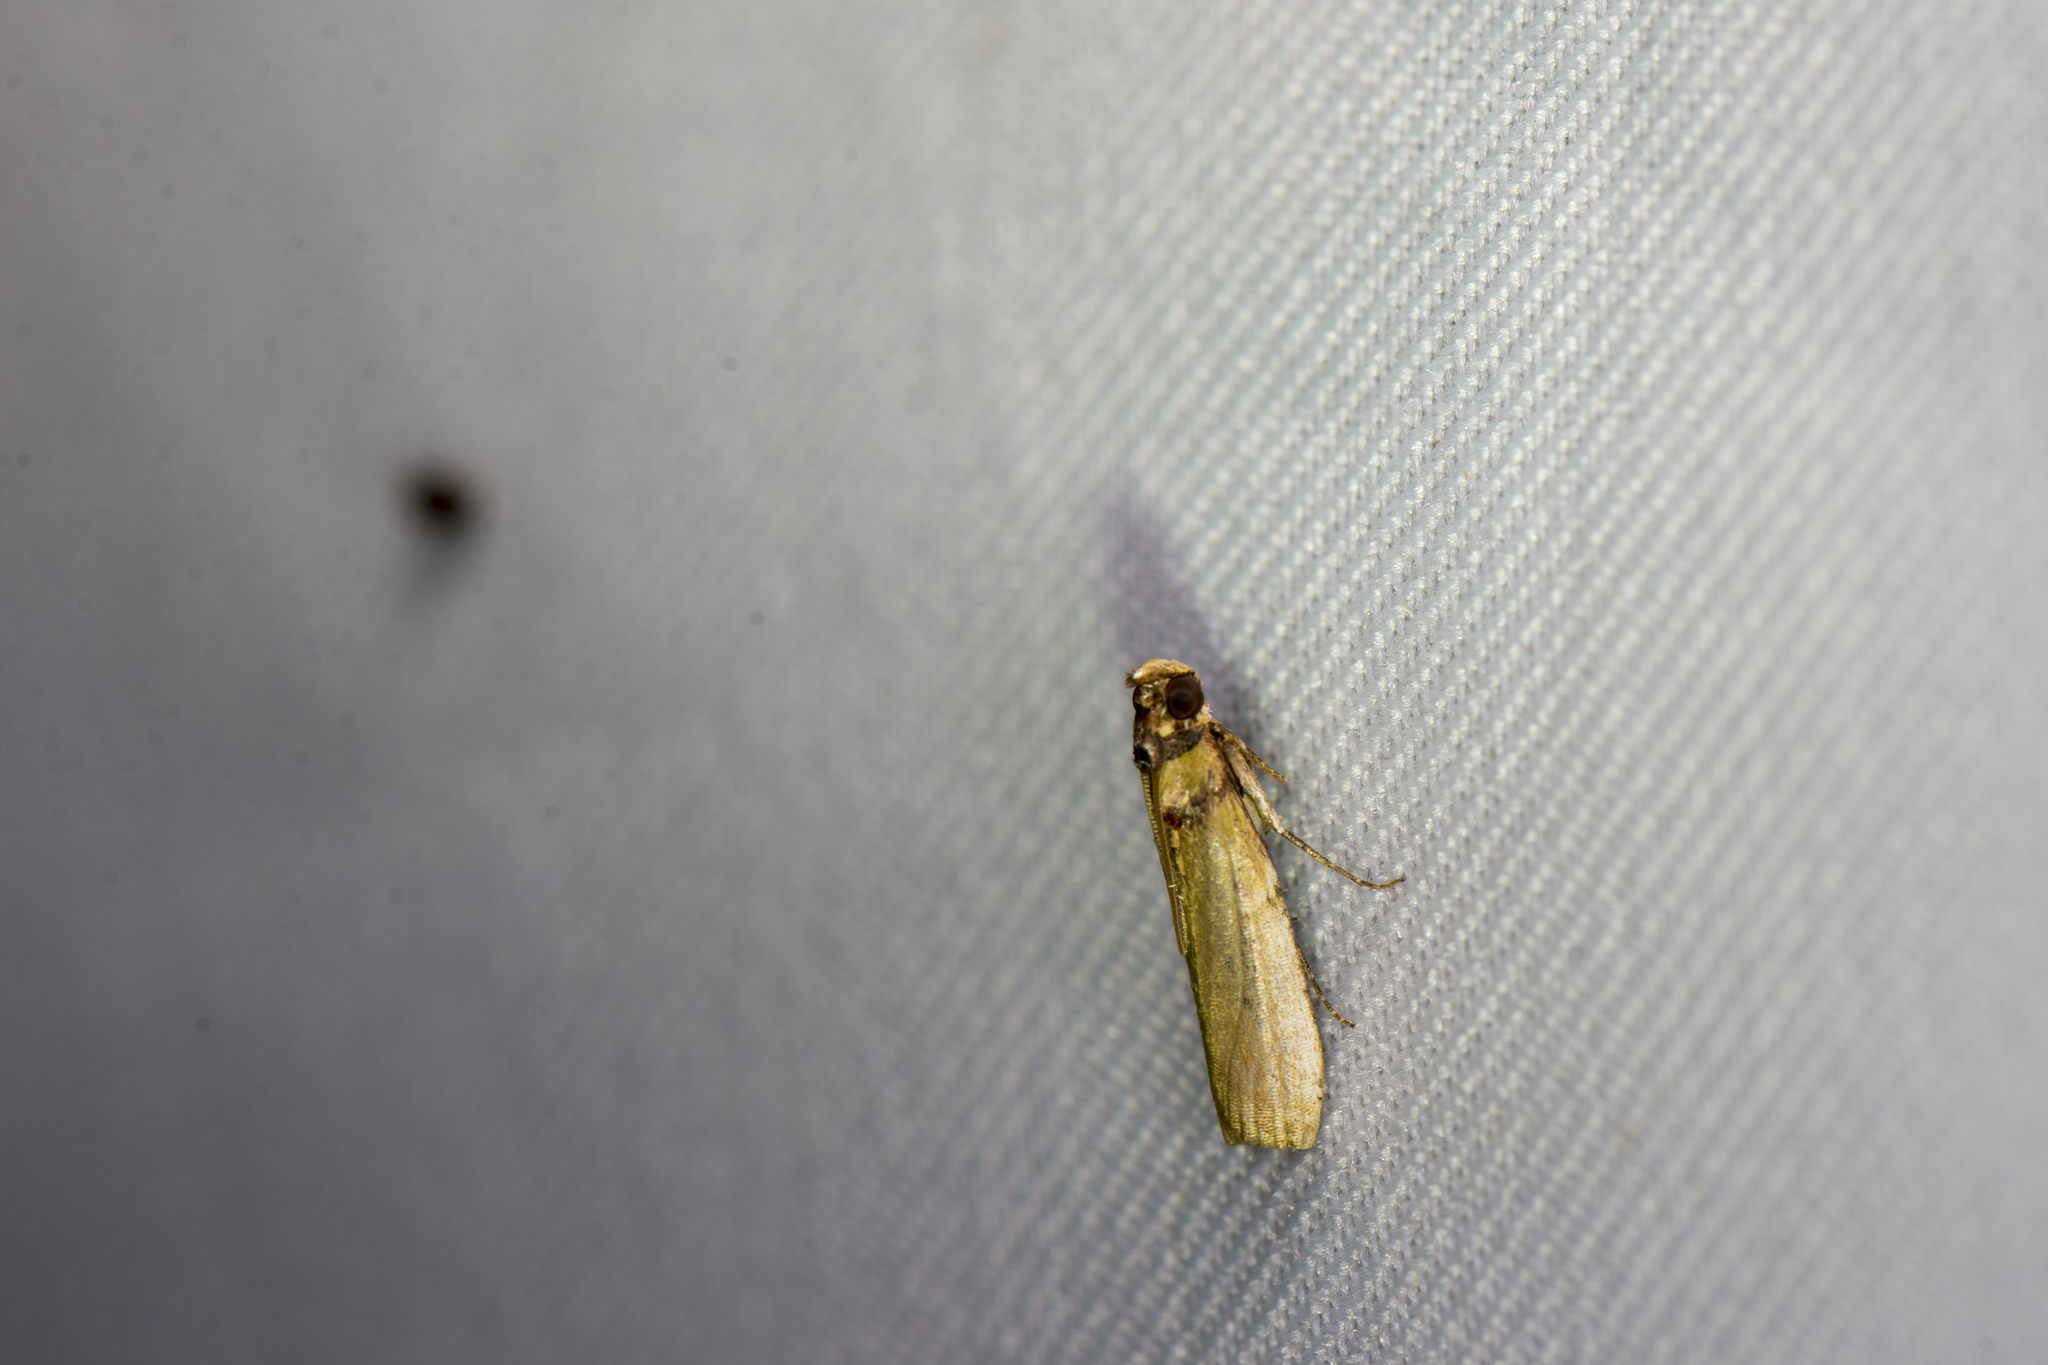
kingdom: Animalia
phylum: Arthropoda
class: Insecta
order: Lepidoptera
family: Pyralidae
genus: Volobilis
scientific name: Volobilis chloropterella
